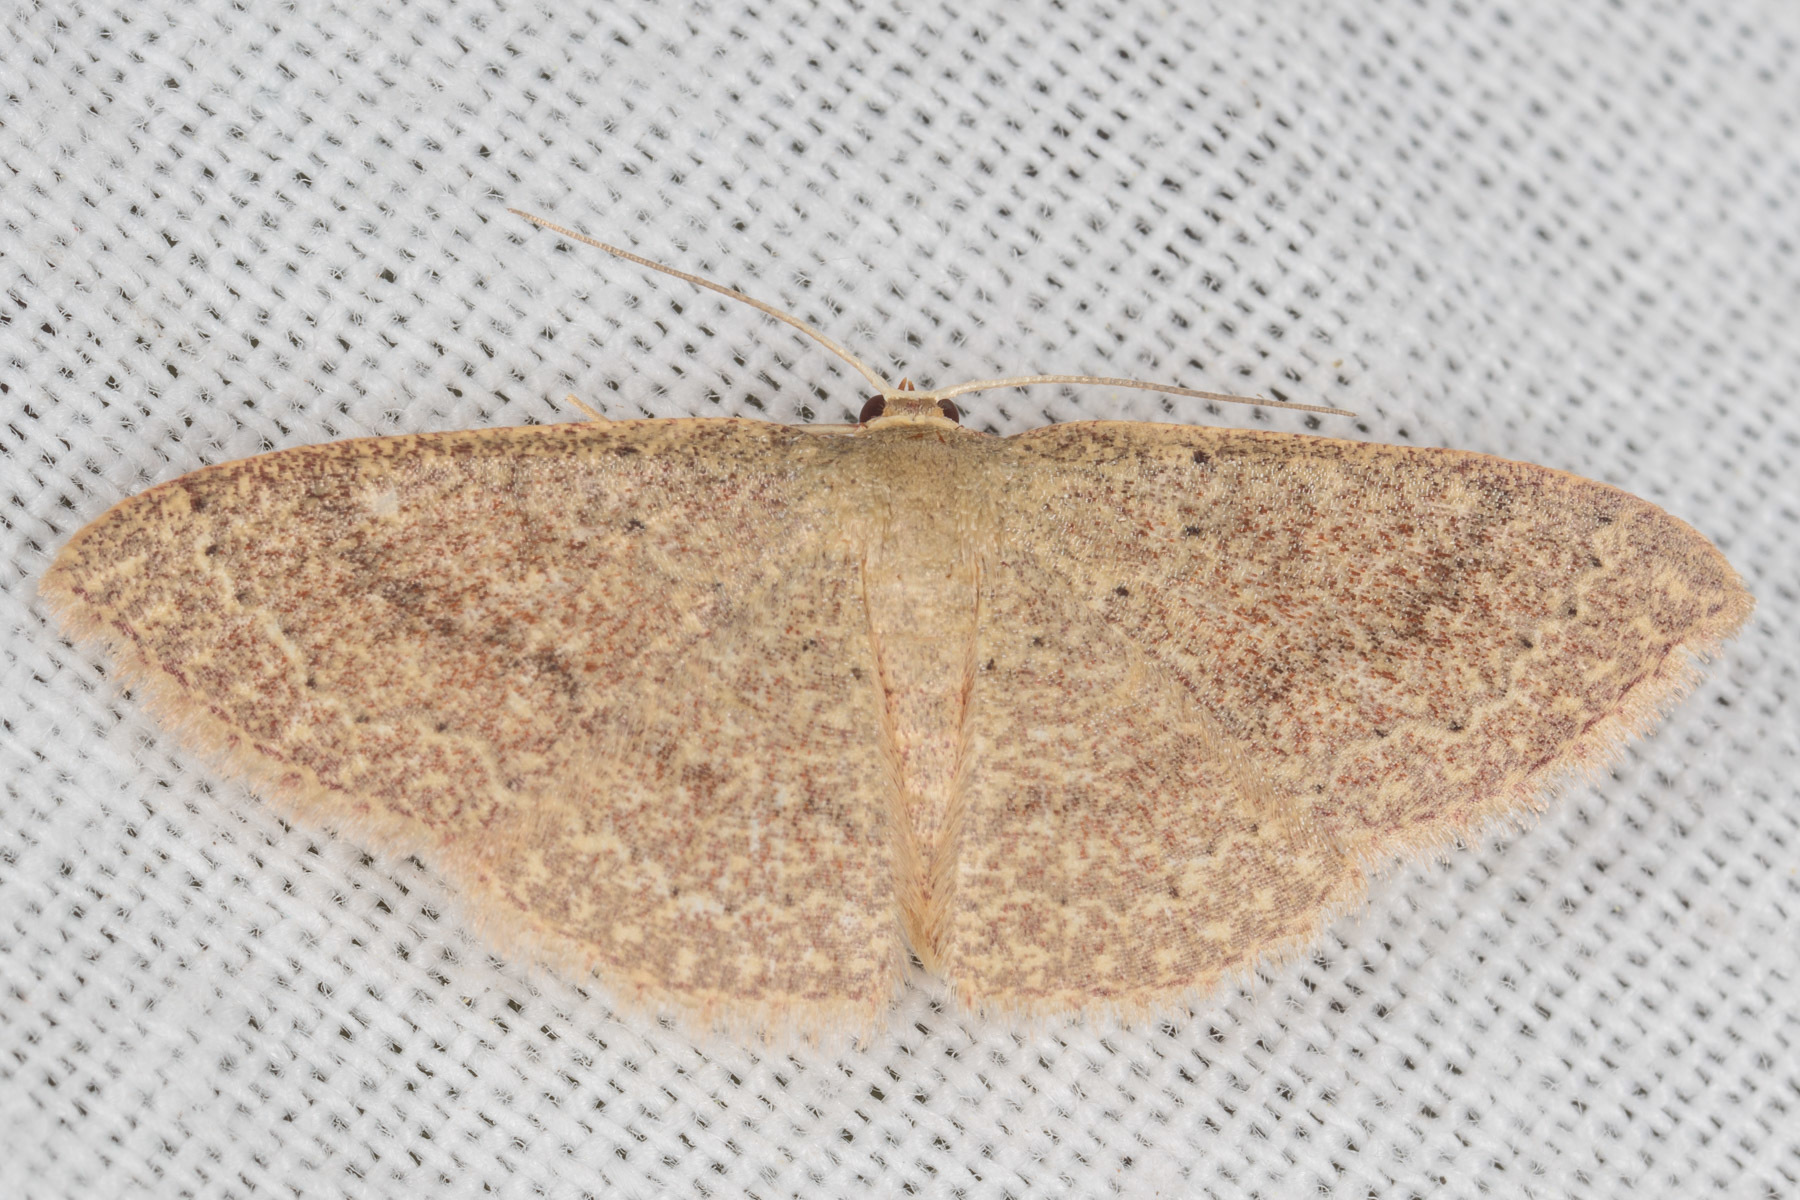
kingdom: Animalia
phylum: Arthropoda
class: Insecta
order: Lepidoptera
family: Geometridae
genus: Pleuroprucha
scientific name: Pleuroprucha insulsaria
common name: Common tan wave
